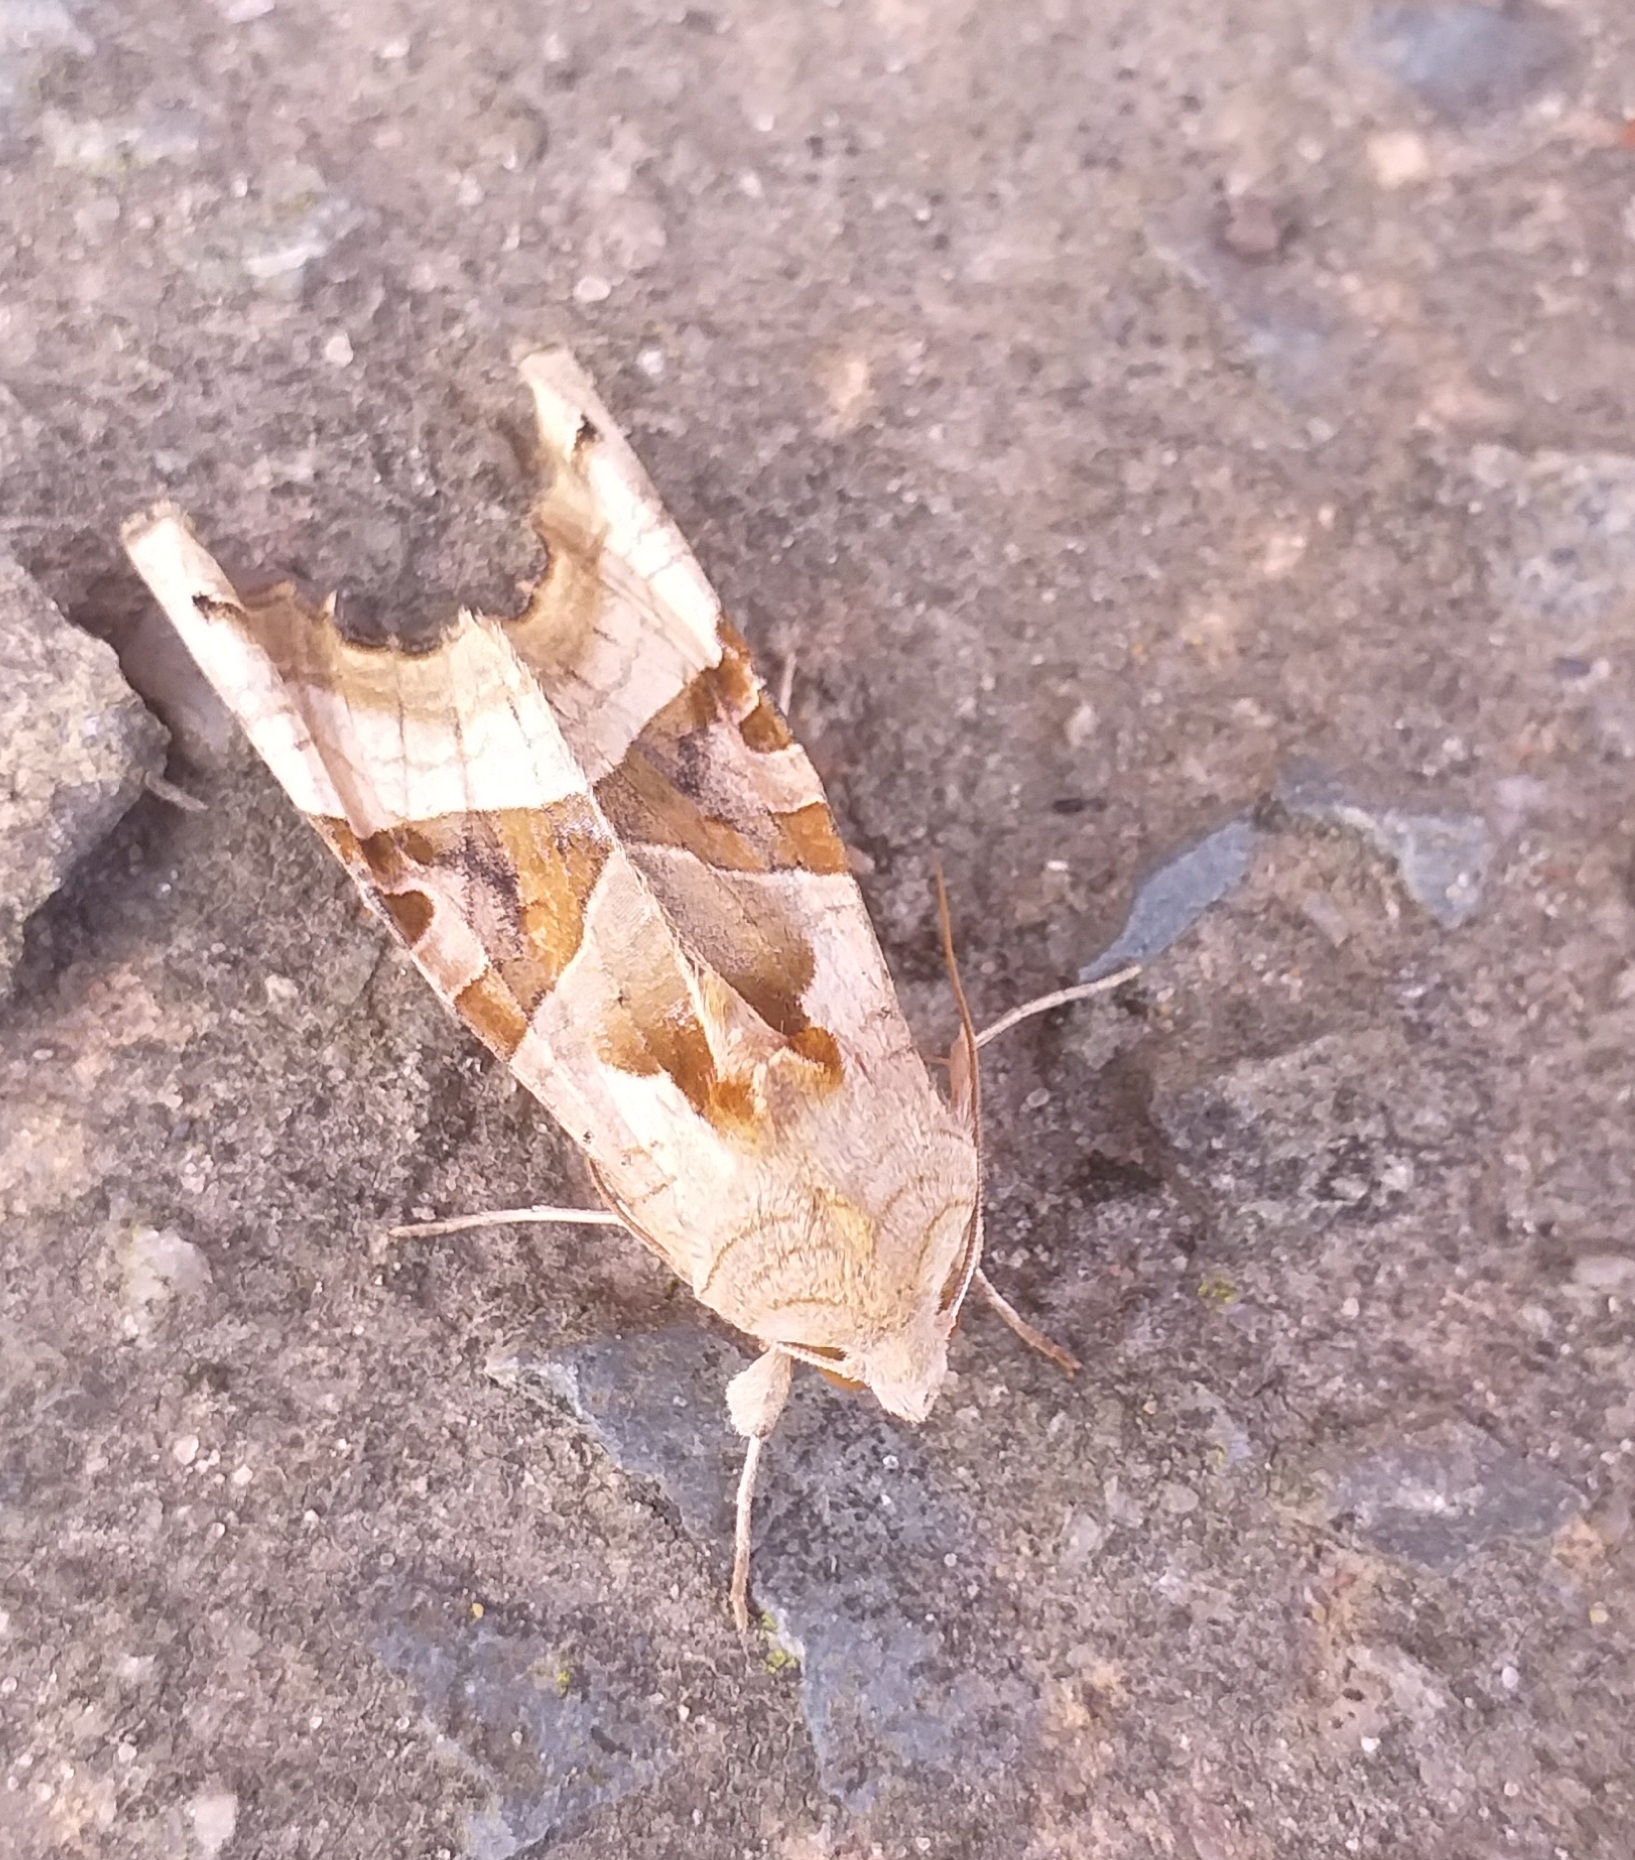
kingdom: Animalia
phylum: Arthropoda
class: Insecta
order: Lepidoptera
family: Noctuidae
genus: Phlogophora
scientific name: Phlogophora meticulosa
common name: Angle shades
